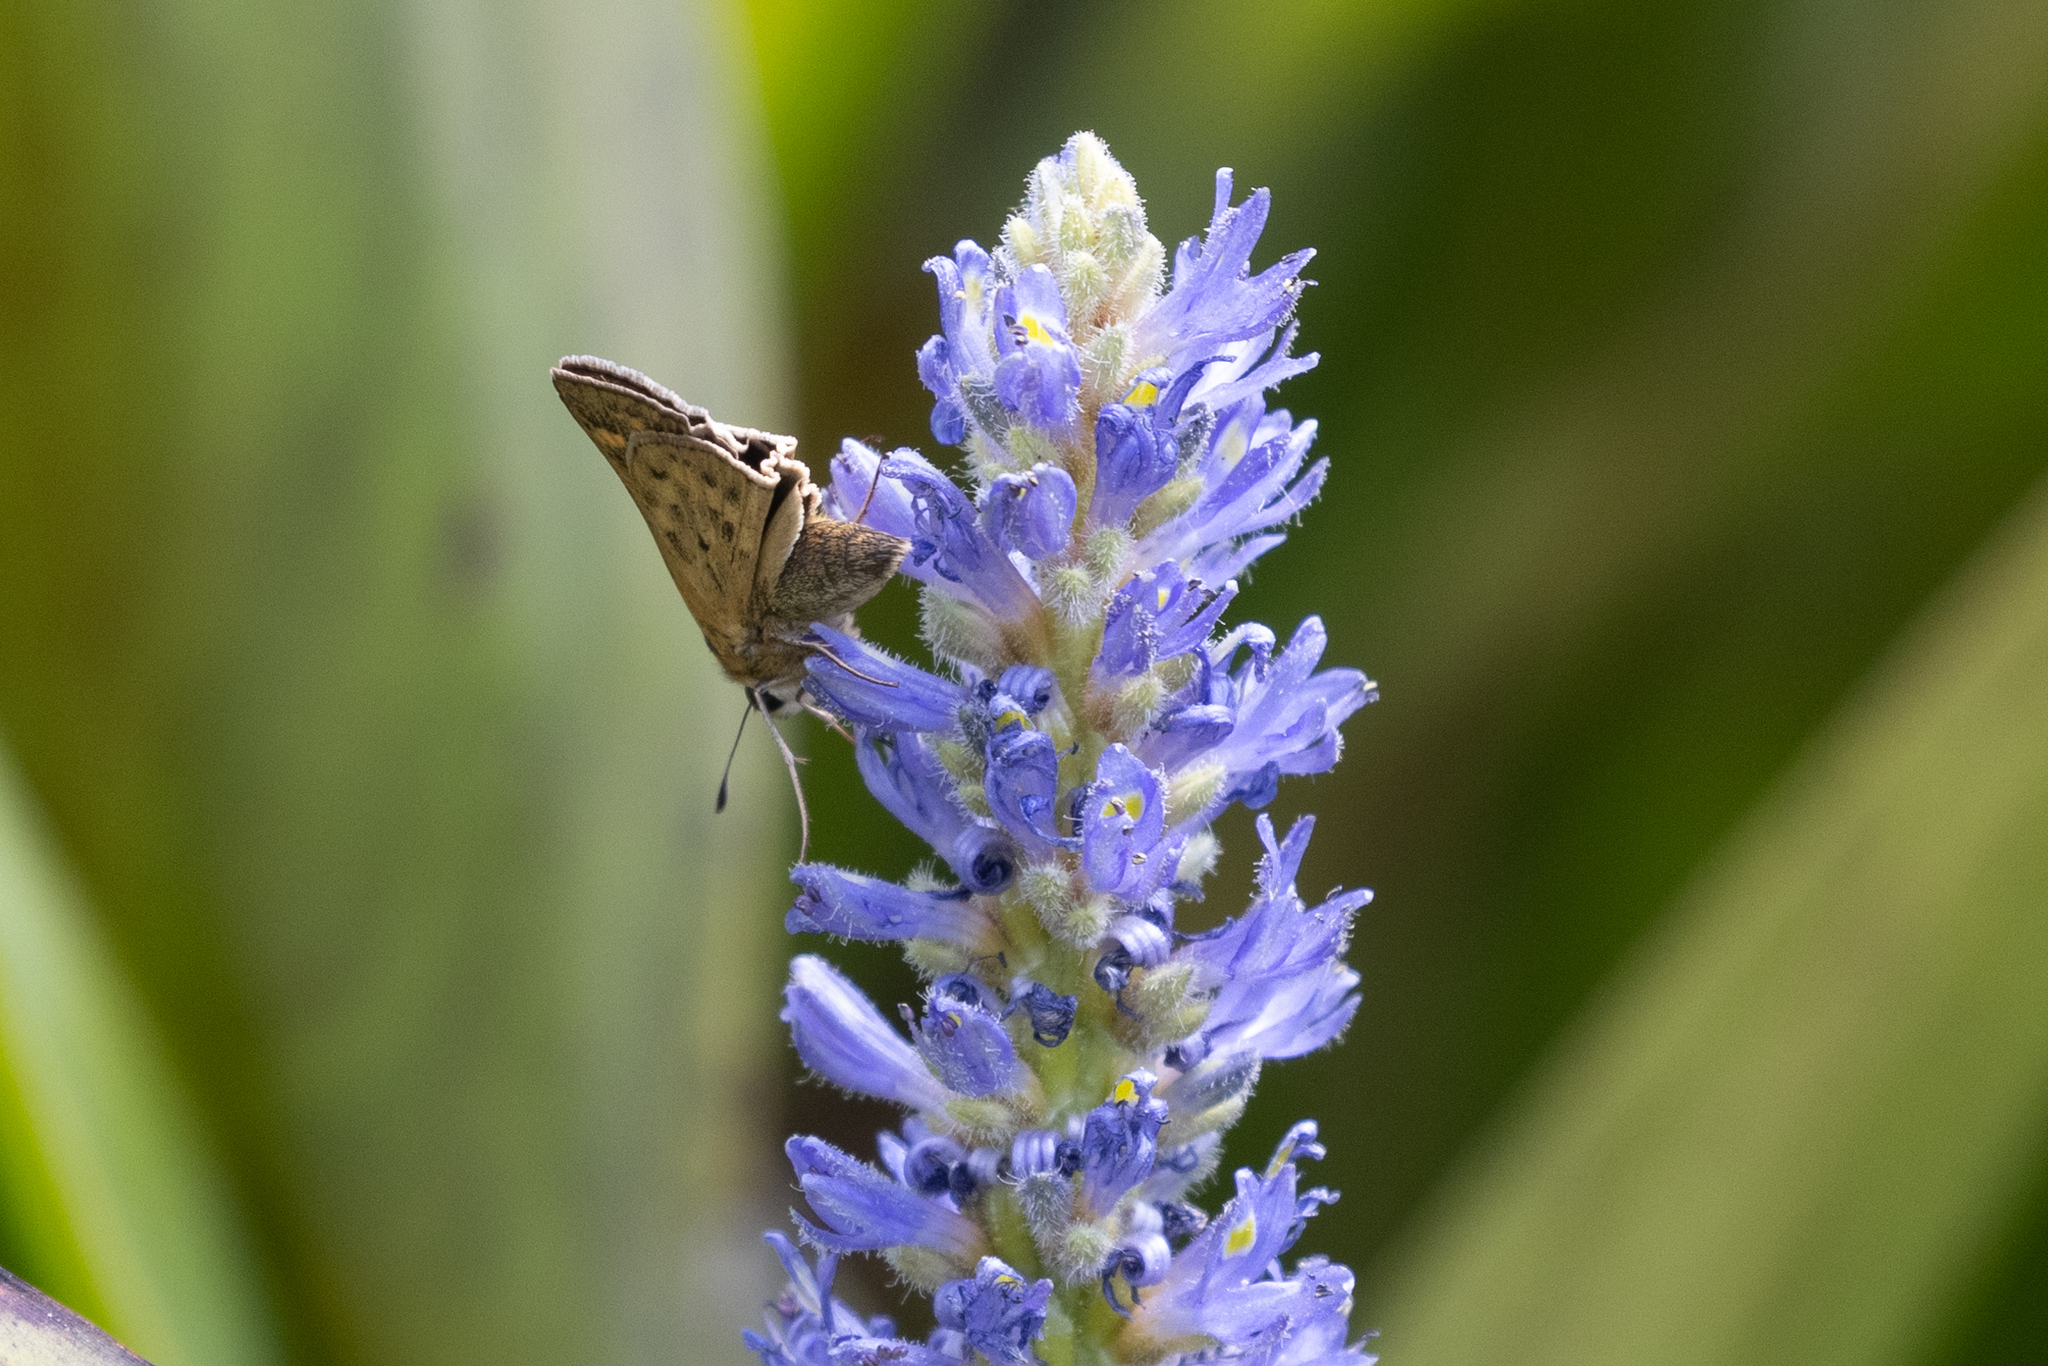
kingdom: Animalia
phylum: Arthropoda
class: Insecta
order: Lepidoptera
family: Hesperiidae
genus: Hylephila
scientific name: Hylephila phyleus
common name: Fiery skipper
